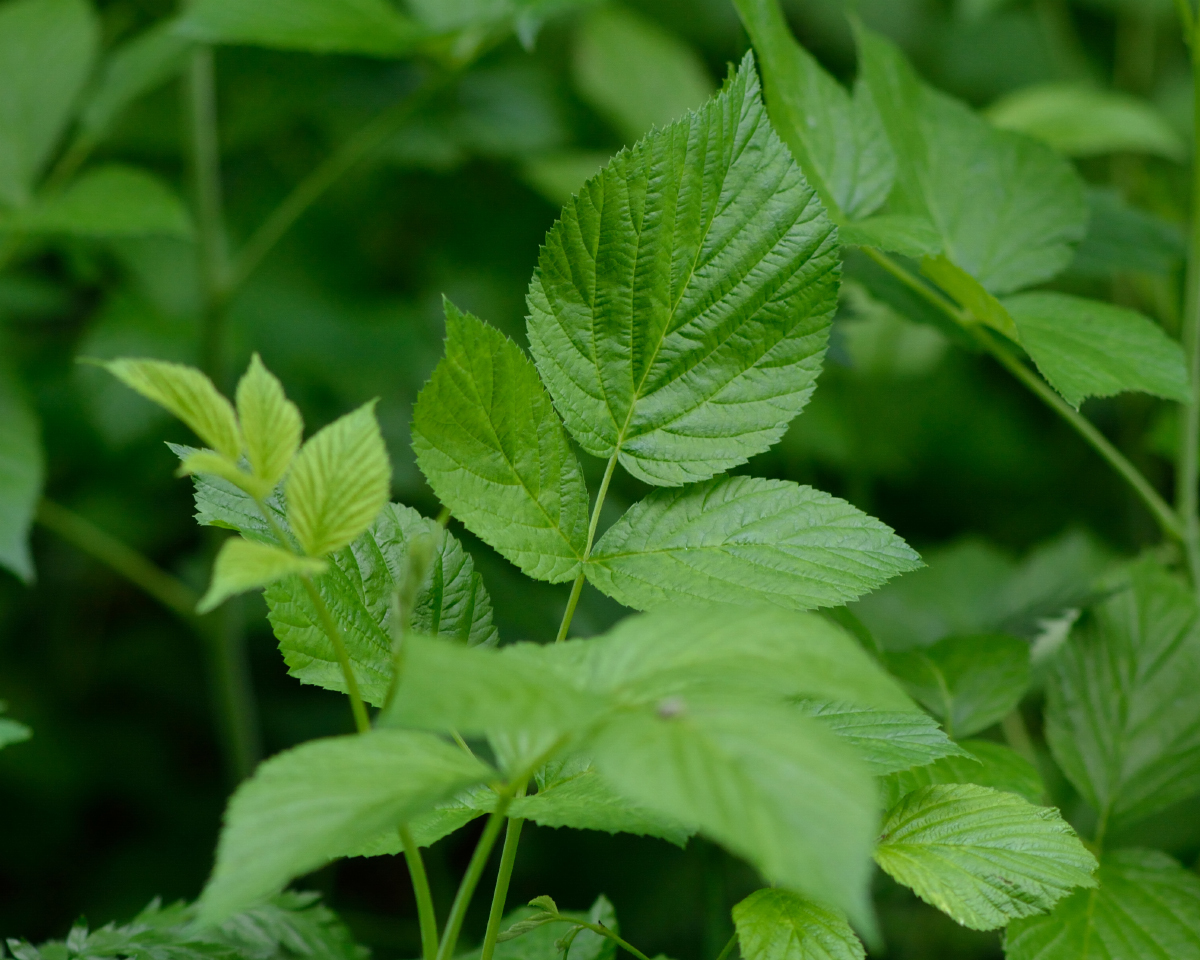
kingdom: Plantae
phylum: Tracheophyta
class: Magnoliopsida
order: Rosales
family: Rosaceae
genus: Rubus
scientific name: Rubus idaeus
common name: Raspberry
